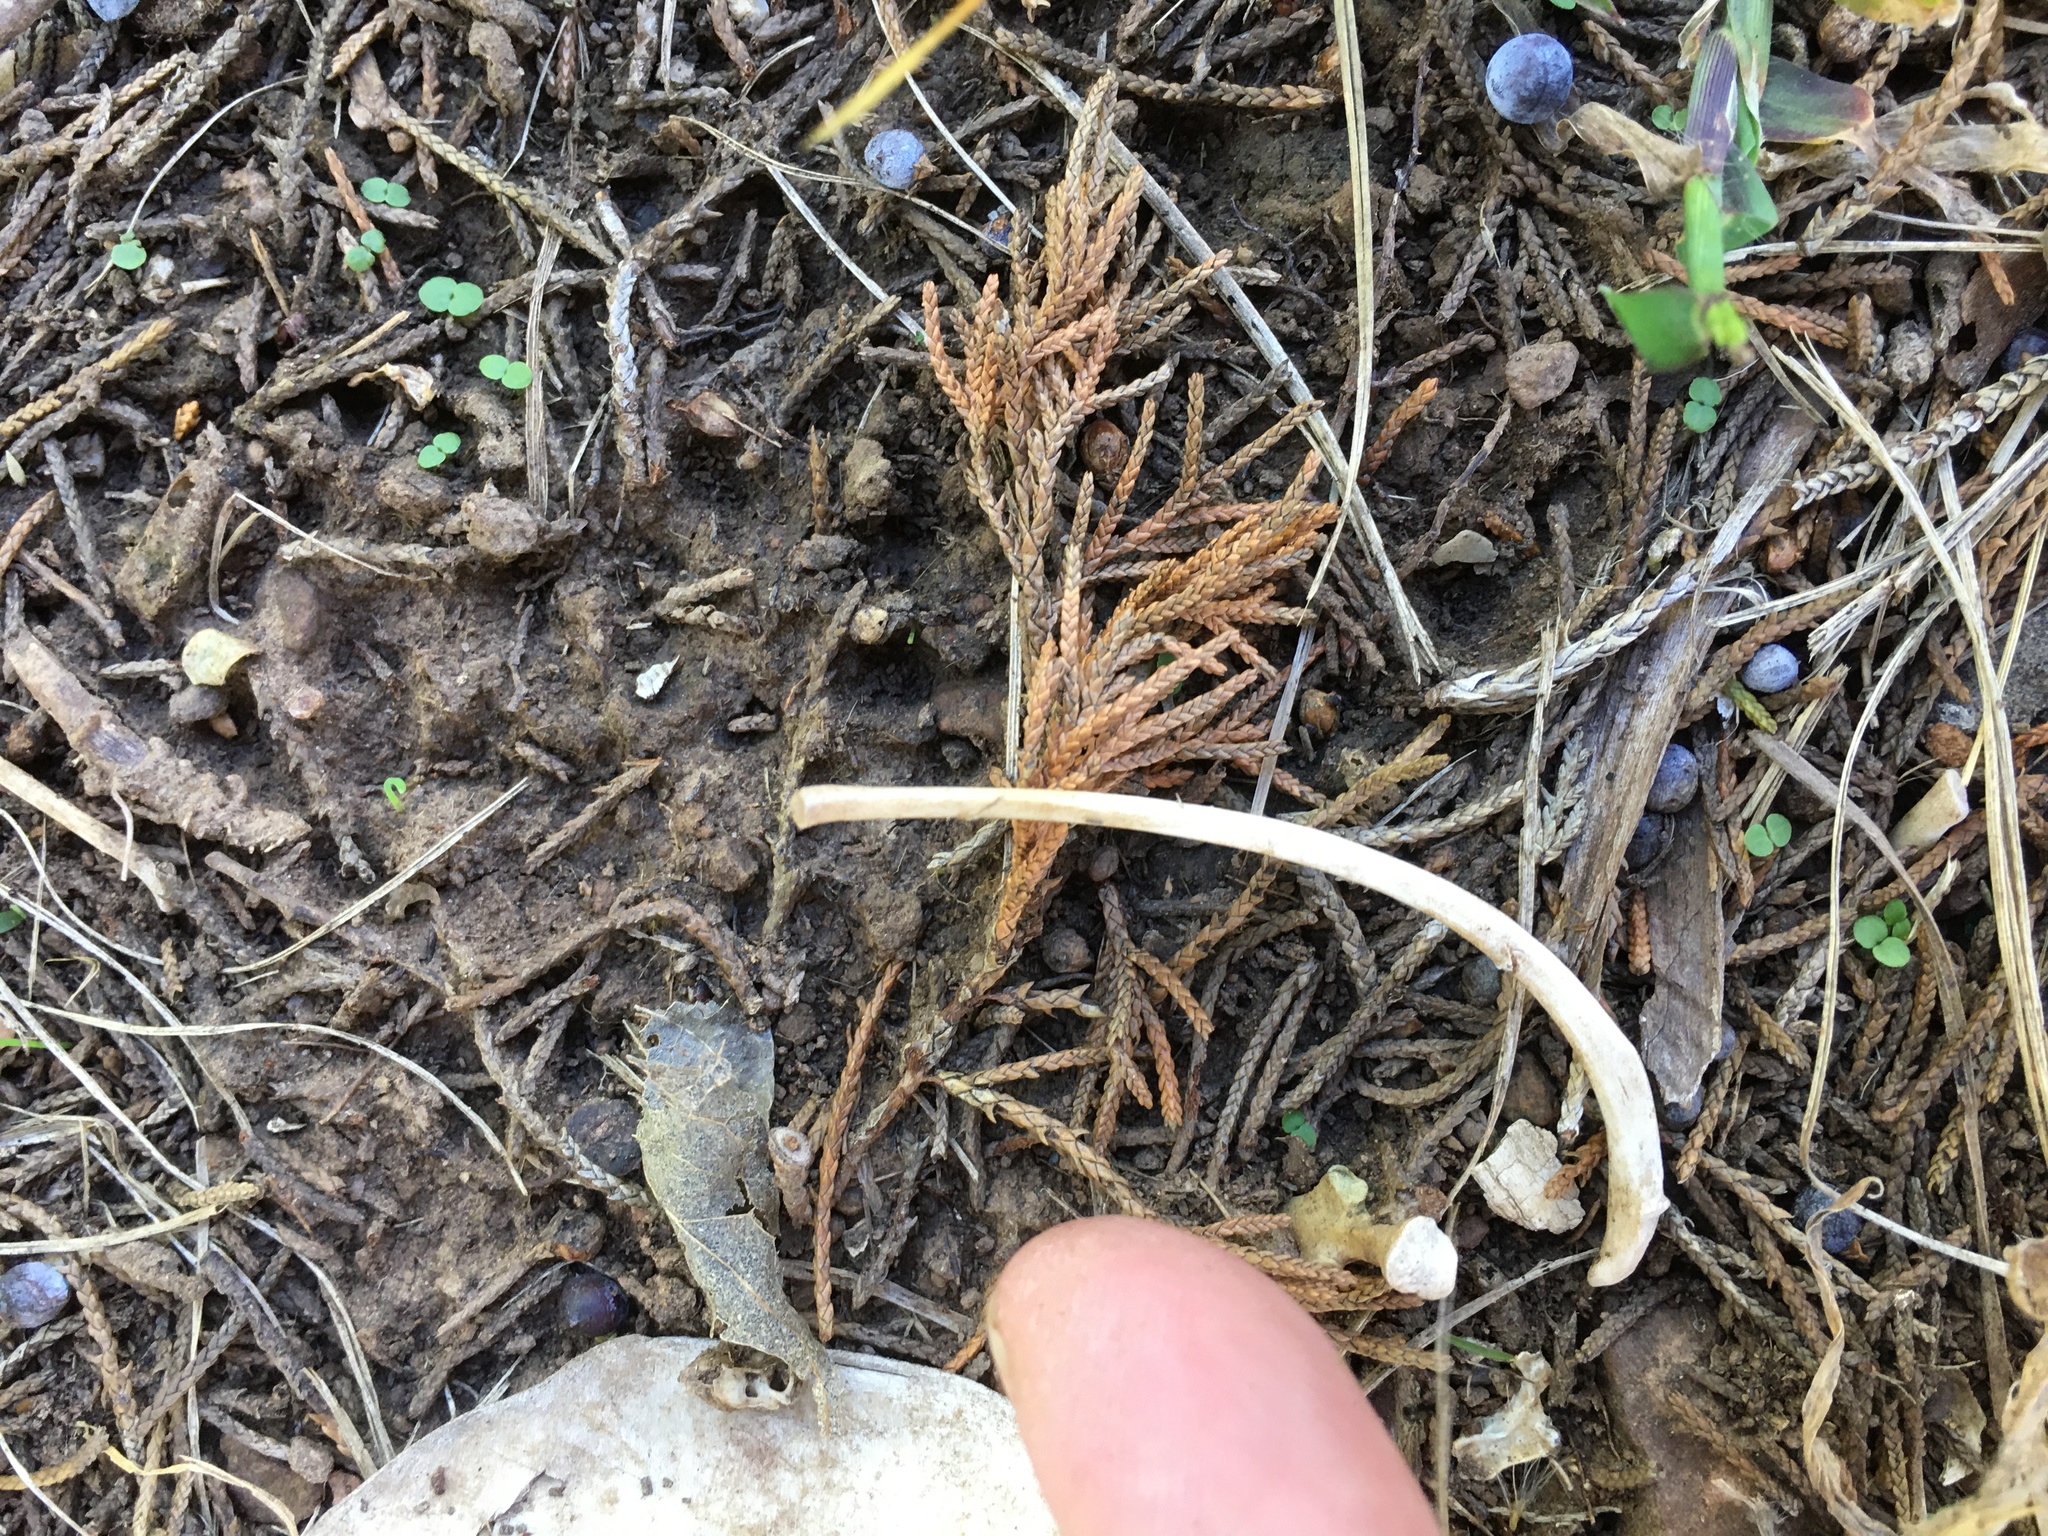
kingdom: Animalia
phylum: Chordata
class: Mammalia
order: Carnivora
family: Felidae
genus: Felis
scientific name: Felis catus
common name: Domestic cat
